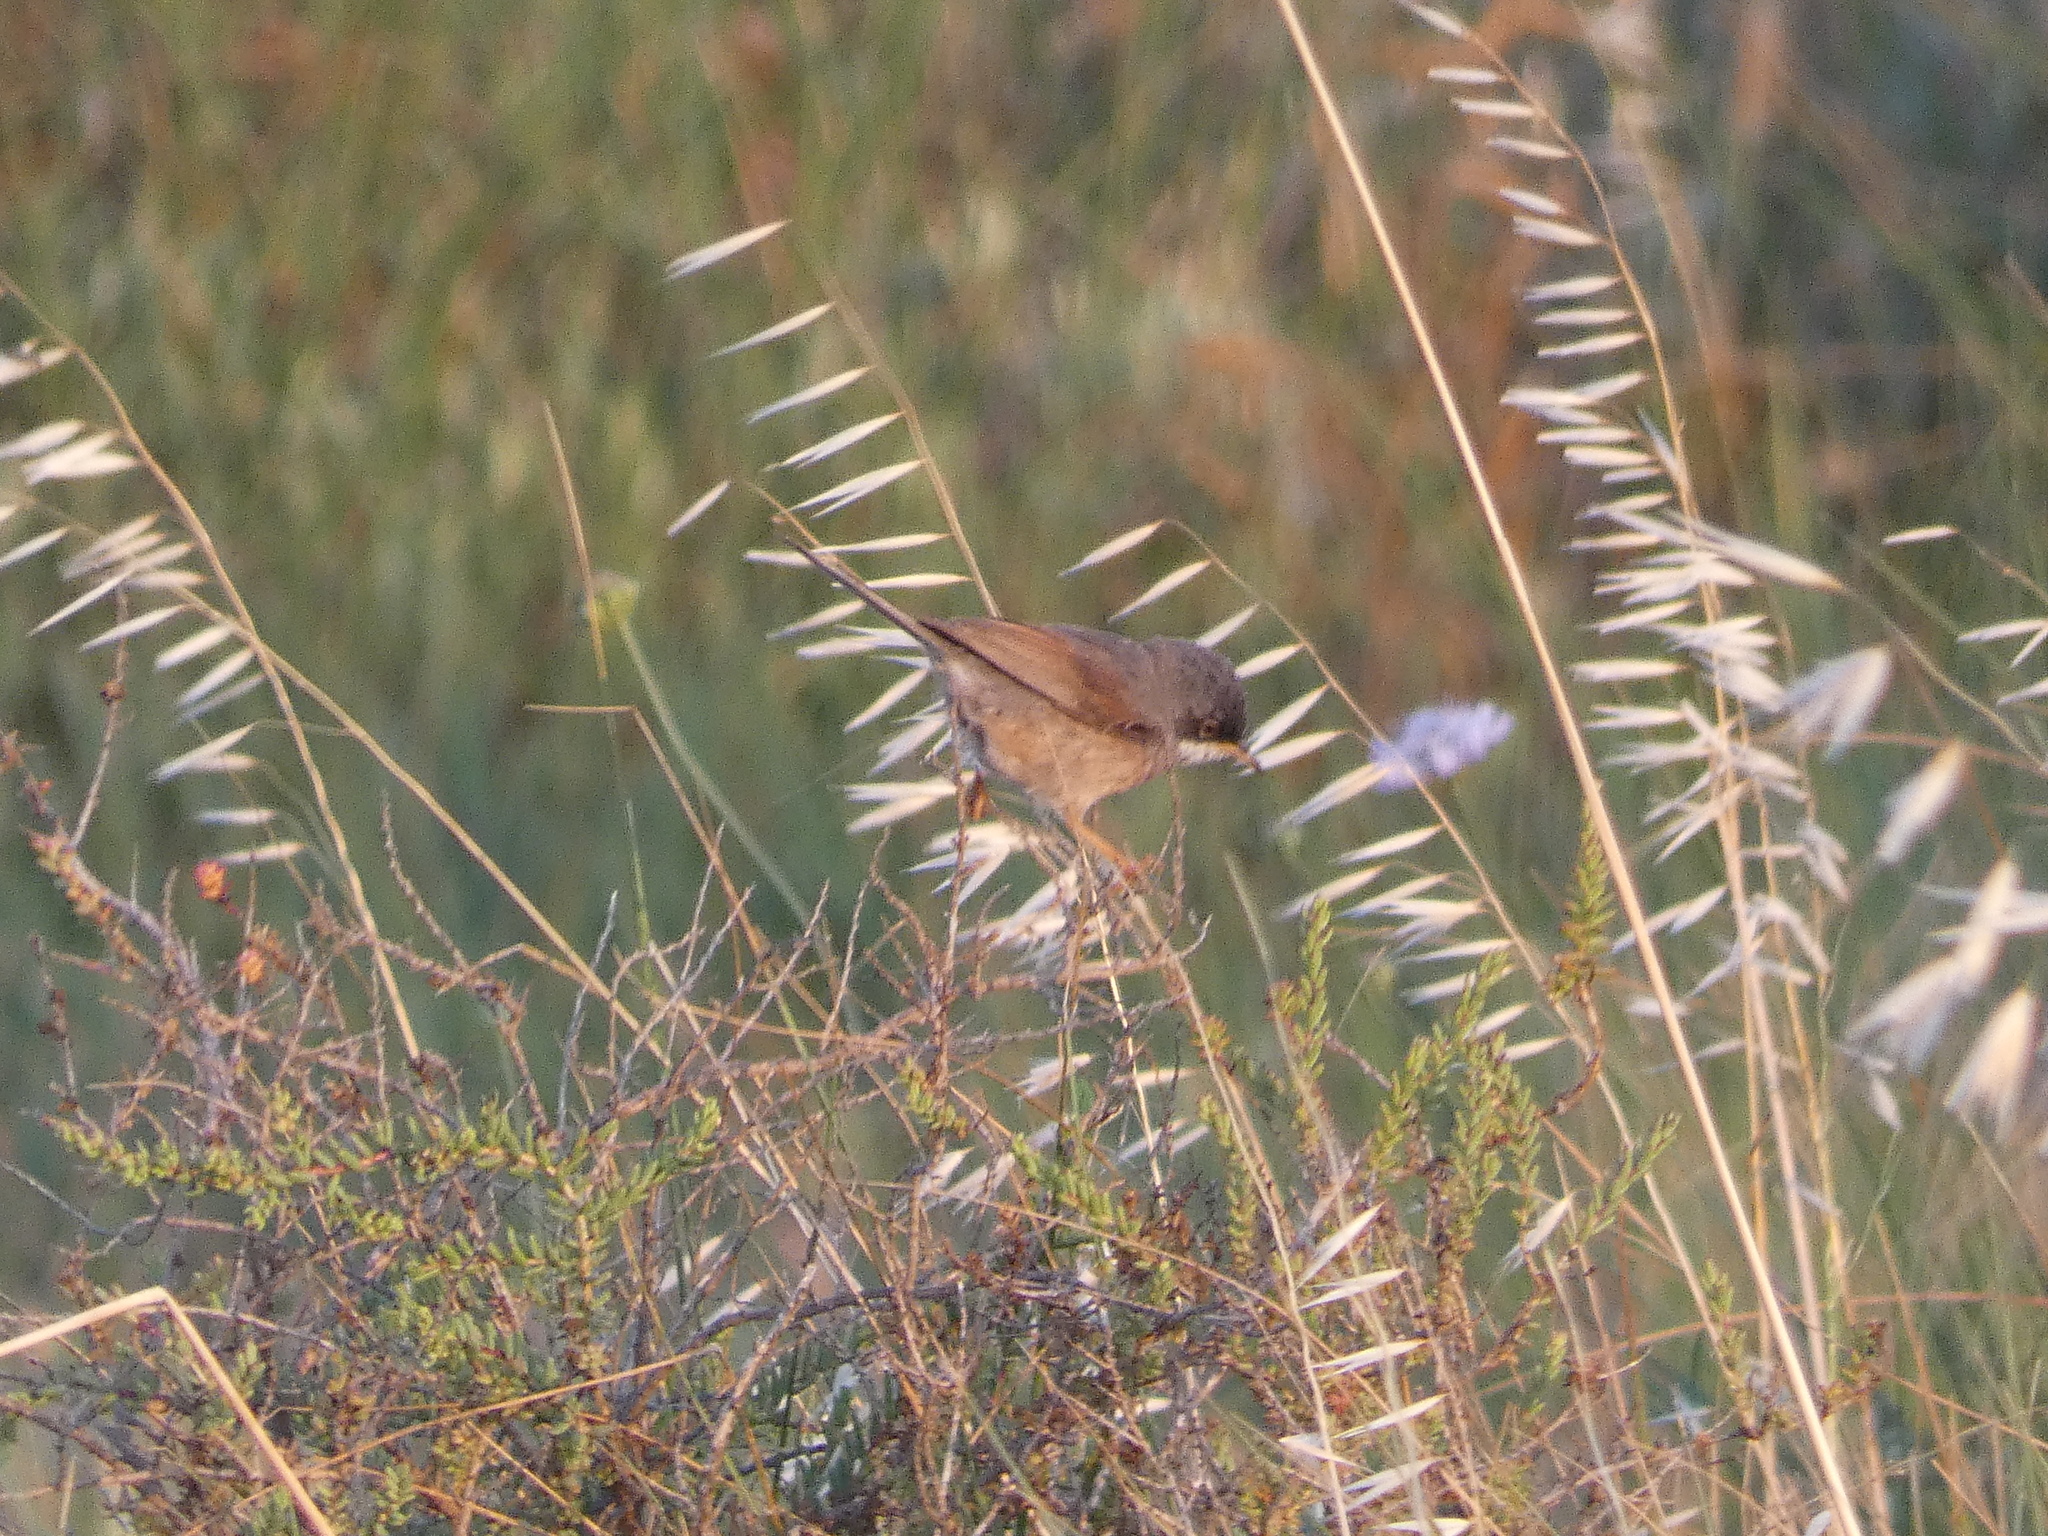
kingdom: Animalia
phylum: Chordata
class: Aves
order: Passeriformes
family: Sylviidae
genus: Sylvia
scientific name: Sylvia conspicillata
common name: Spectacled warbler
